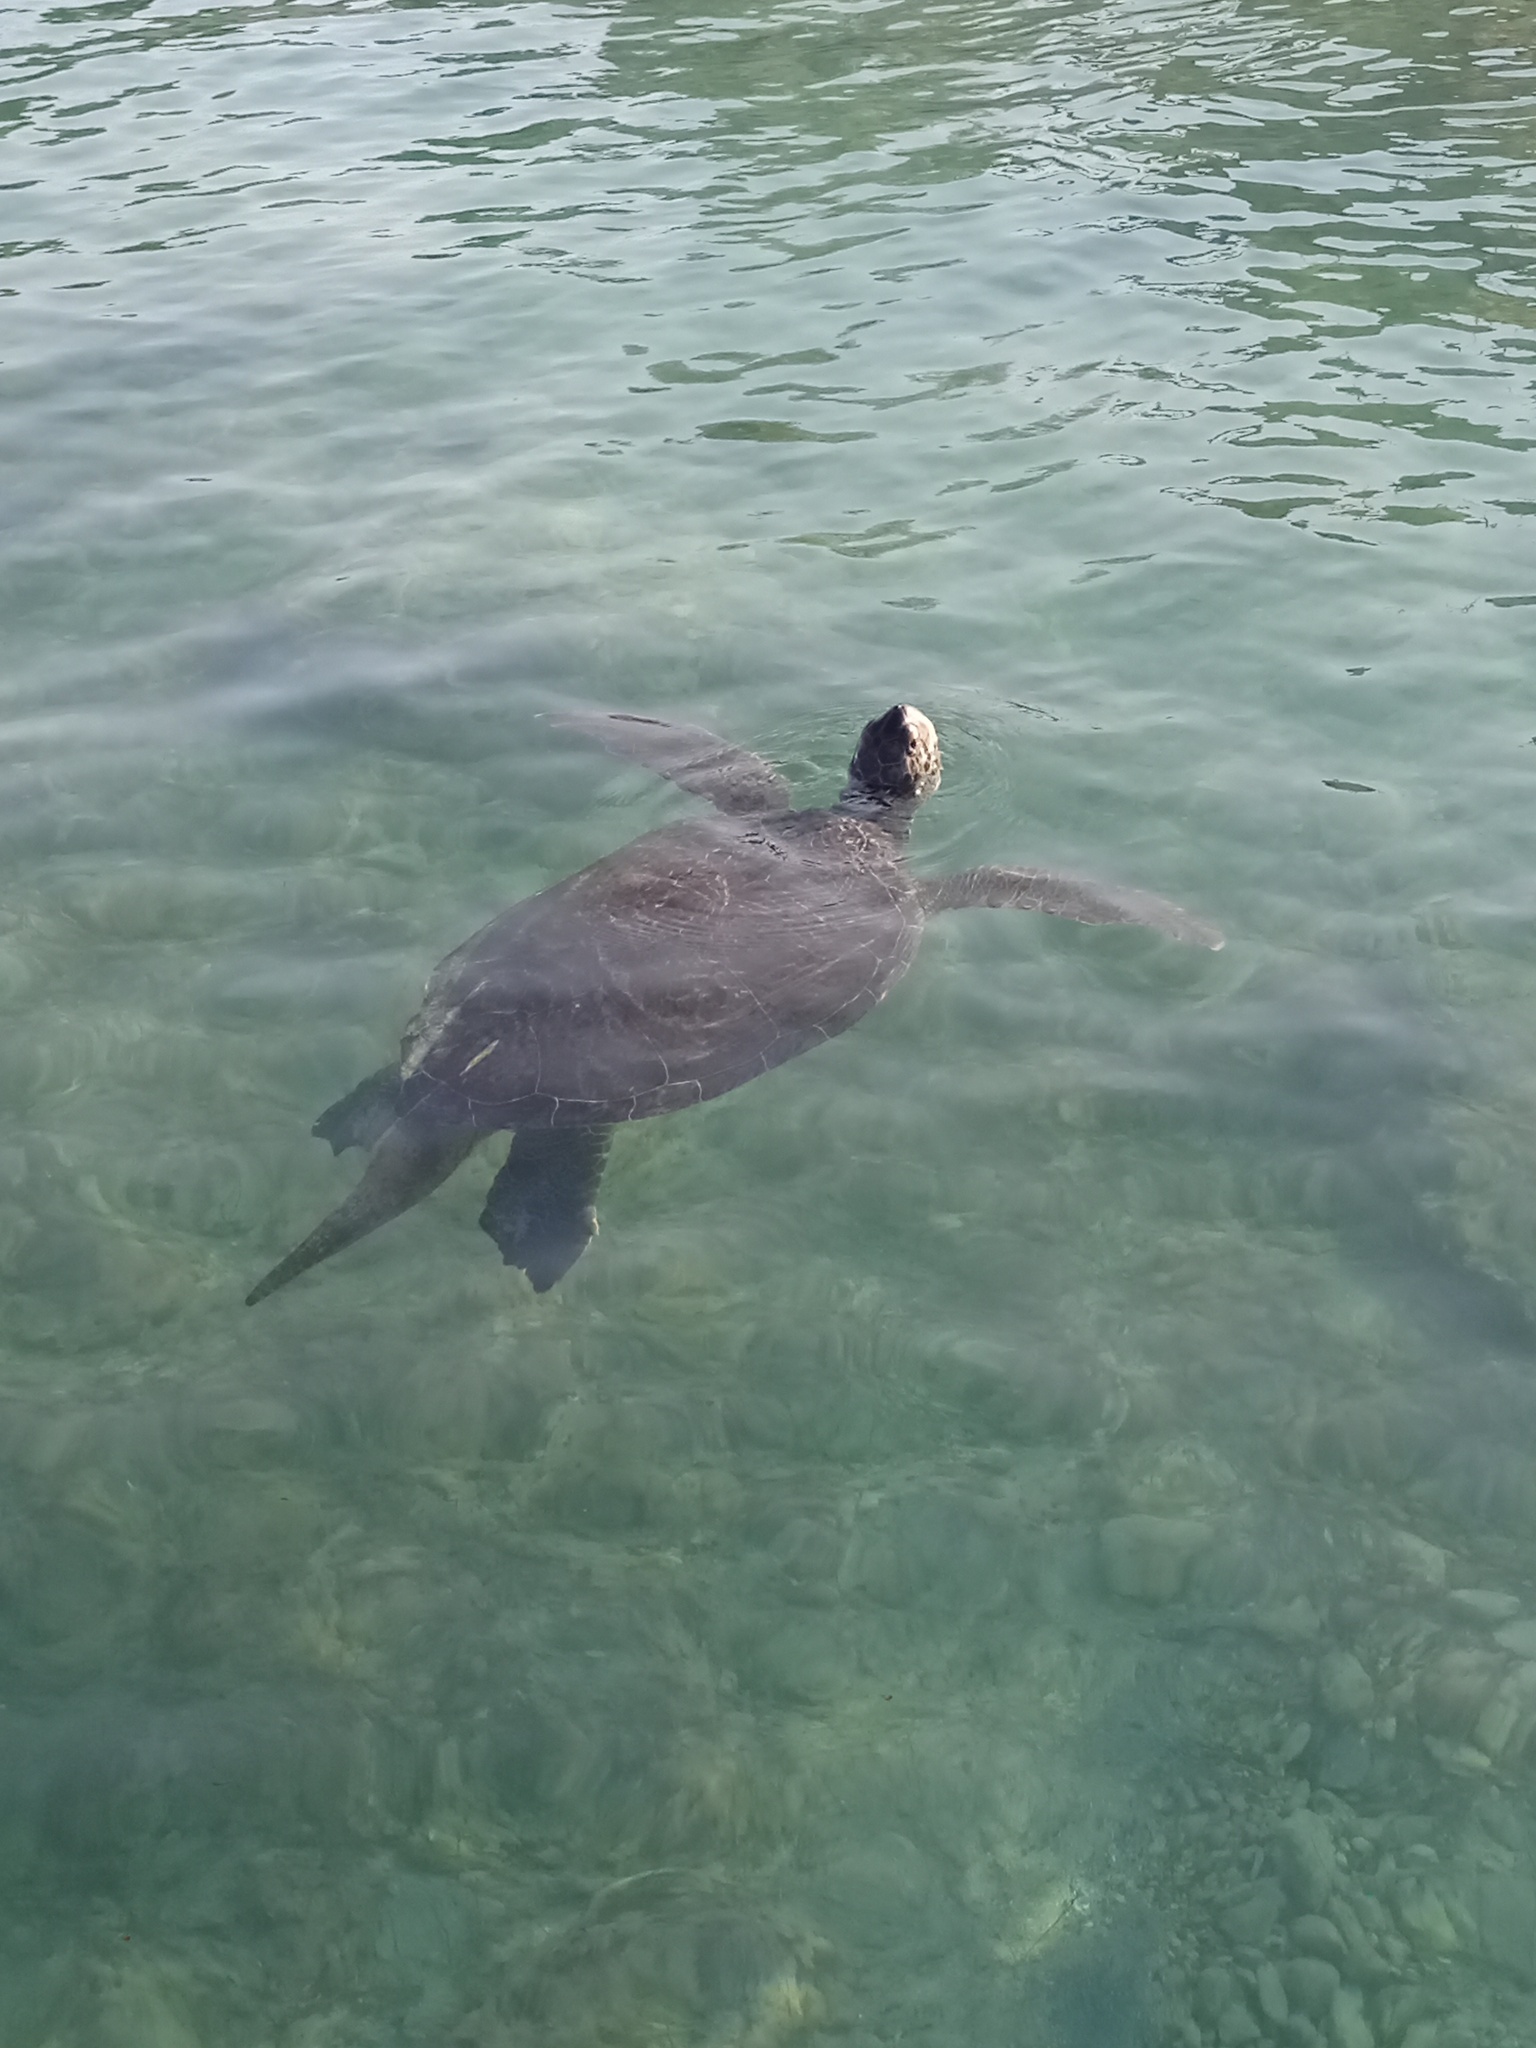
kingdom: Animalia
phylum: Chordata
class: Testudines
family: Cheloniidae
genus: Chelonia
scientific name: Chelonia mydas
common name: Green turtle
